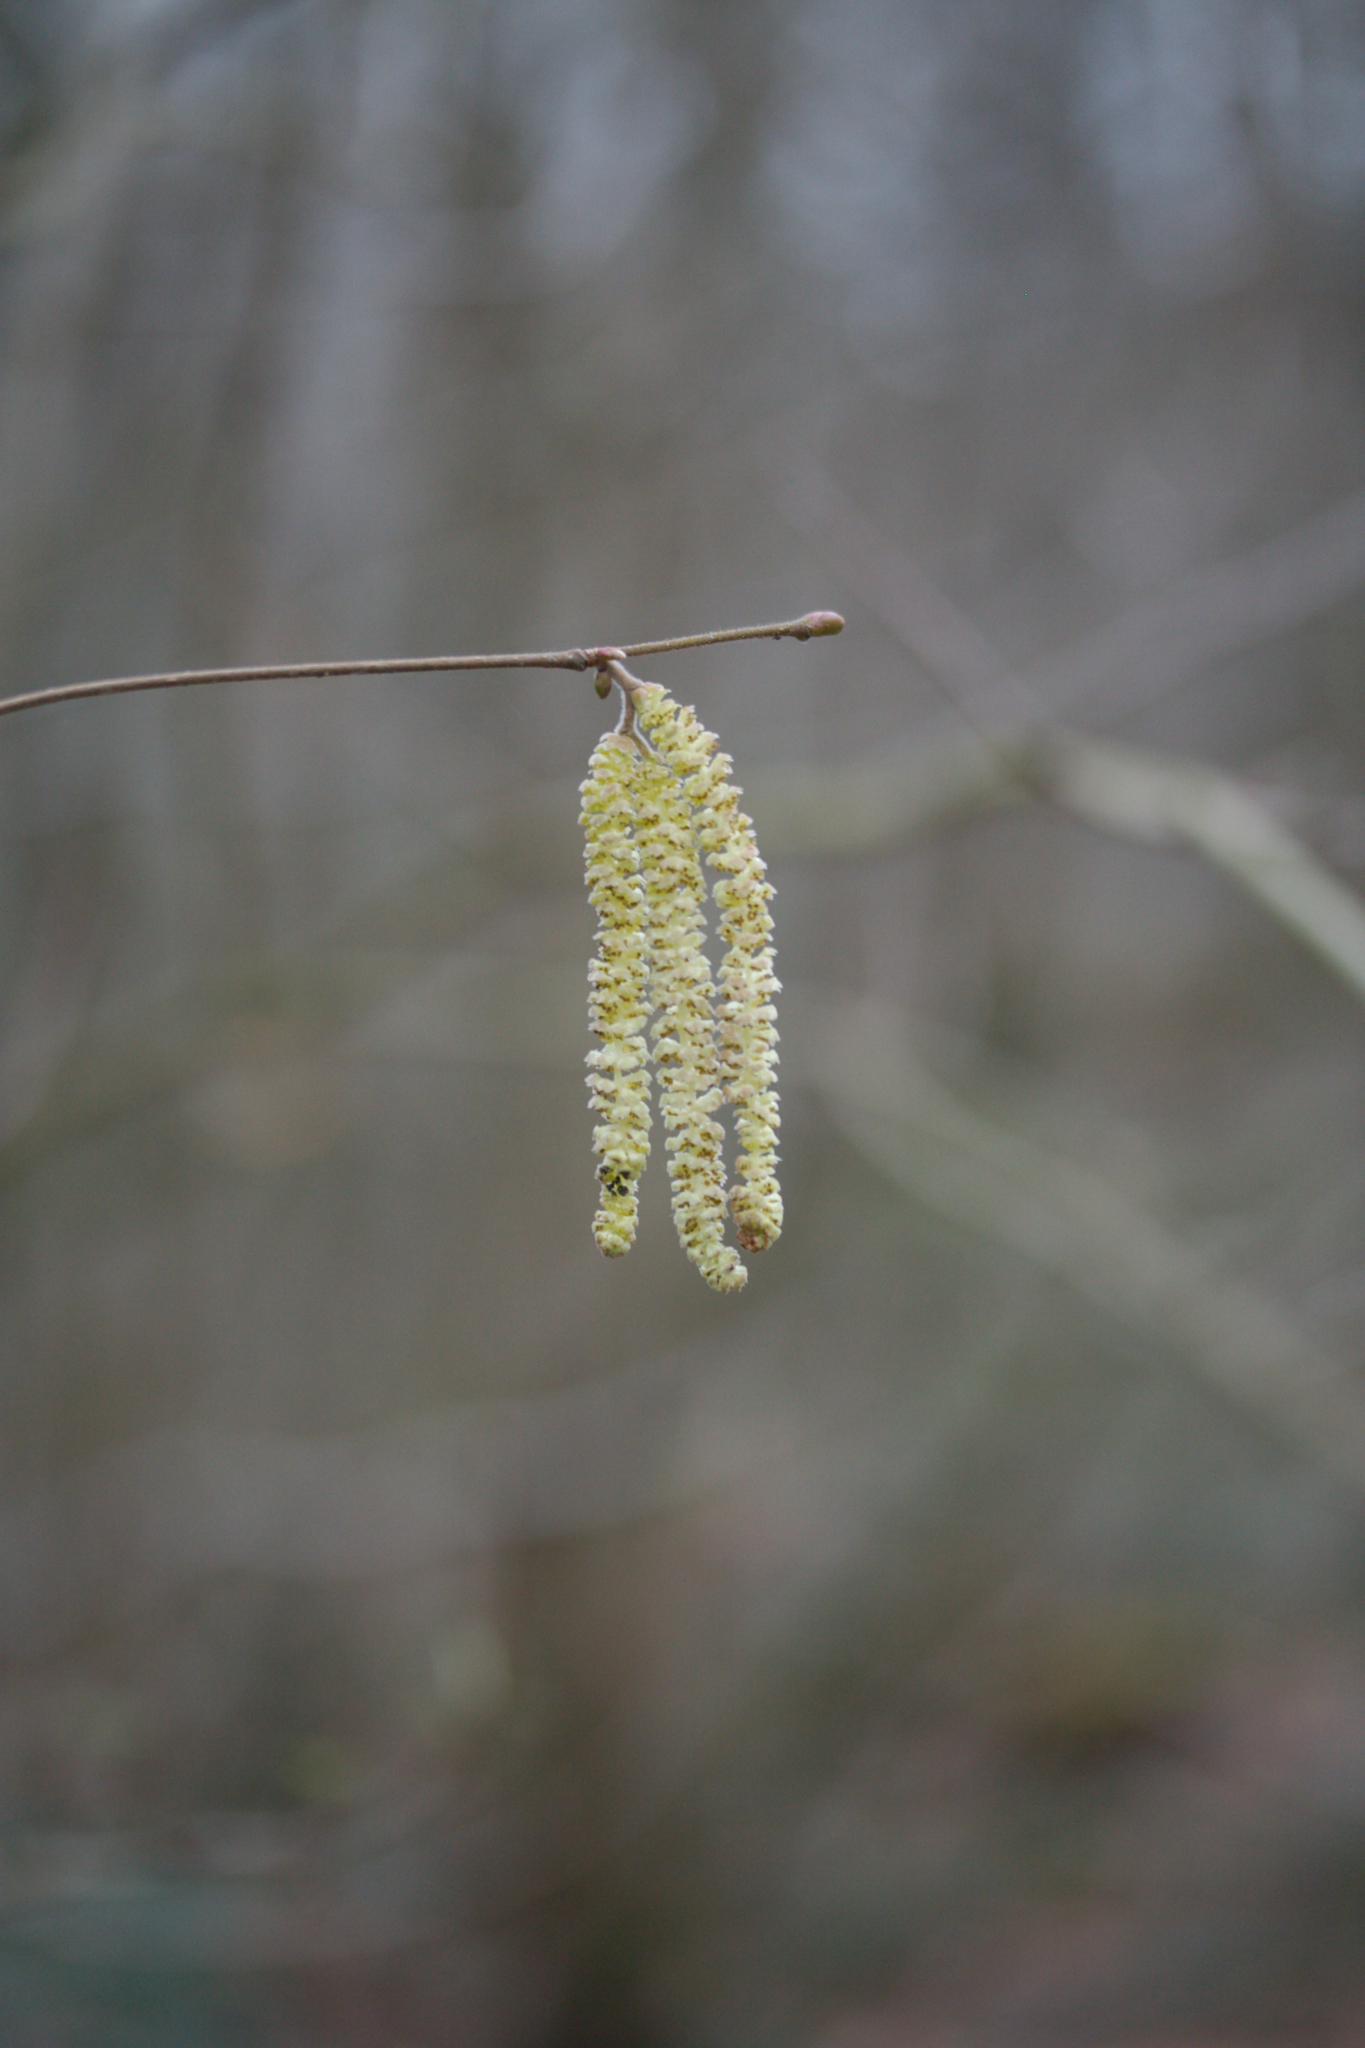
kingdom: Plantae
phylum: Tracheophyta
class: Magnoliopsida
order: Fagales
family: Betulaceae
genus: Corylus
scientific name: Corylus avellana
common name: European hazel
